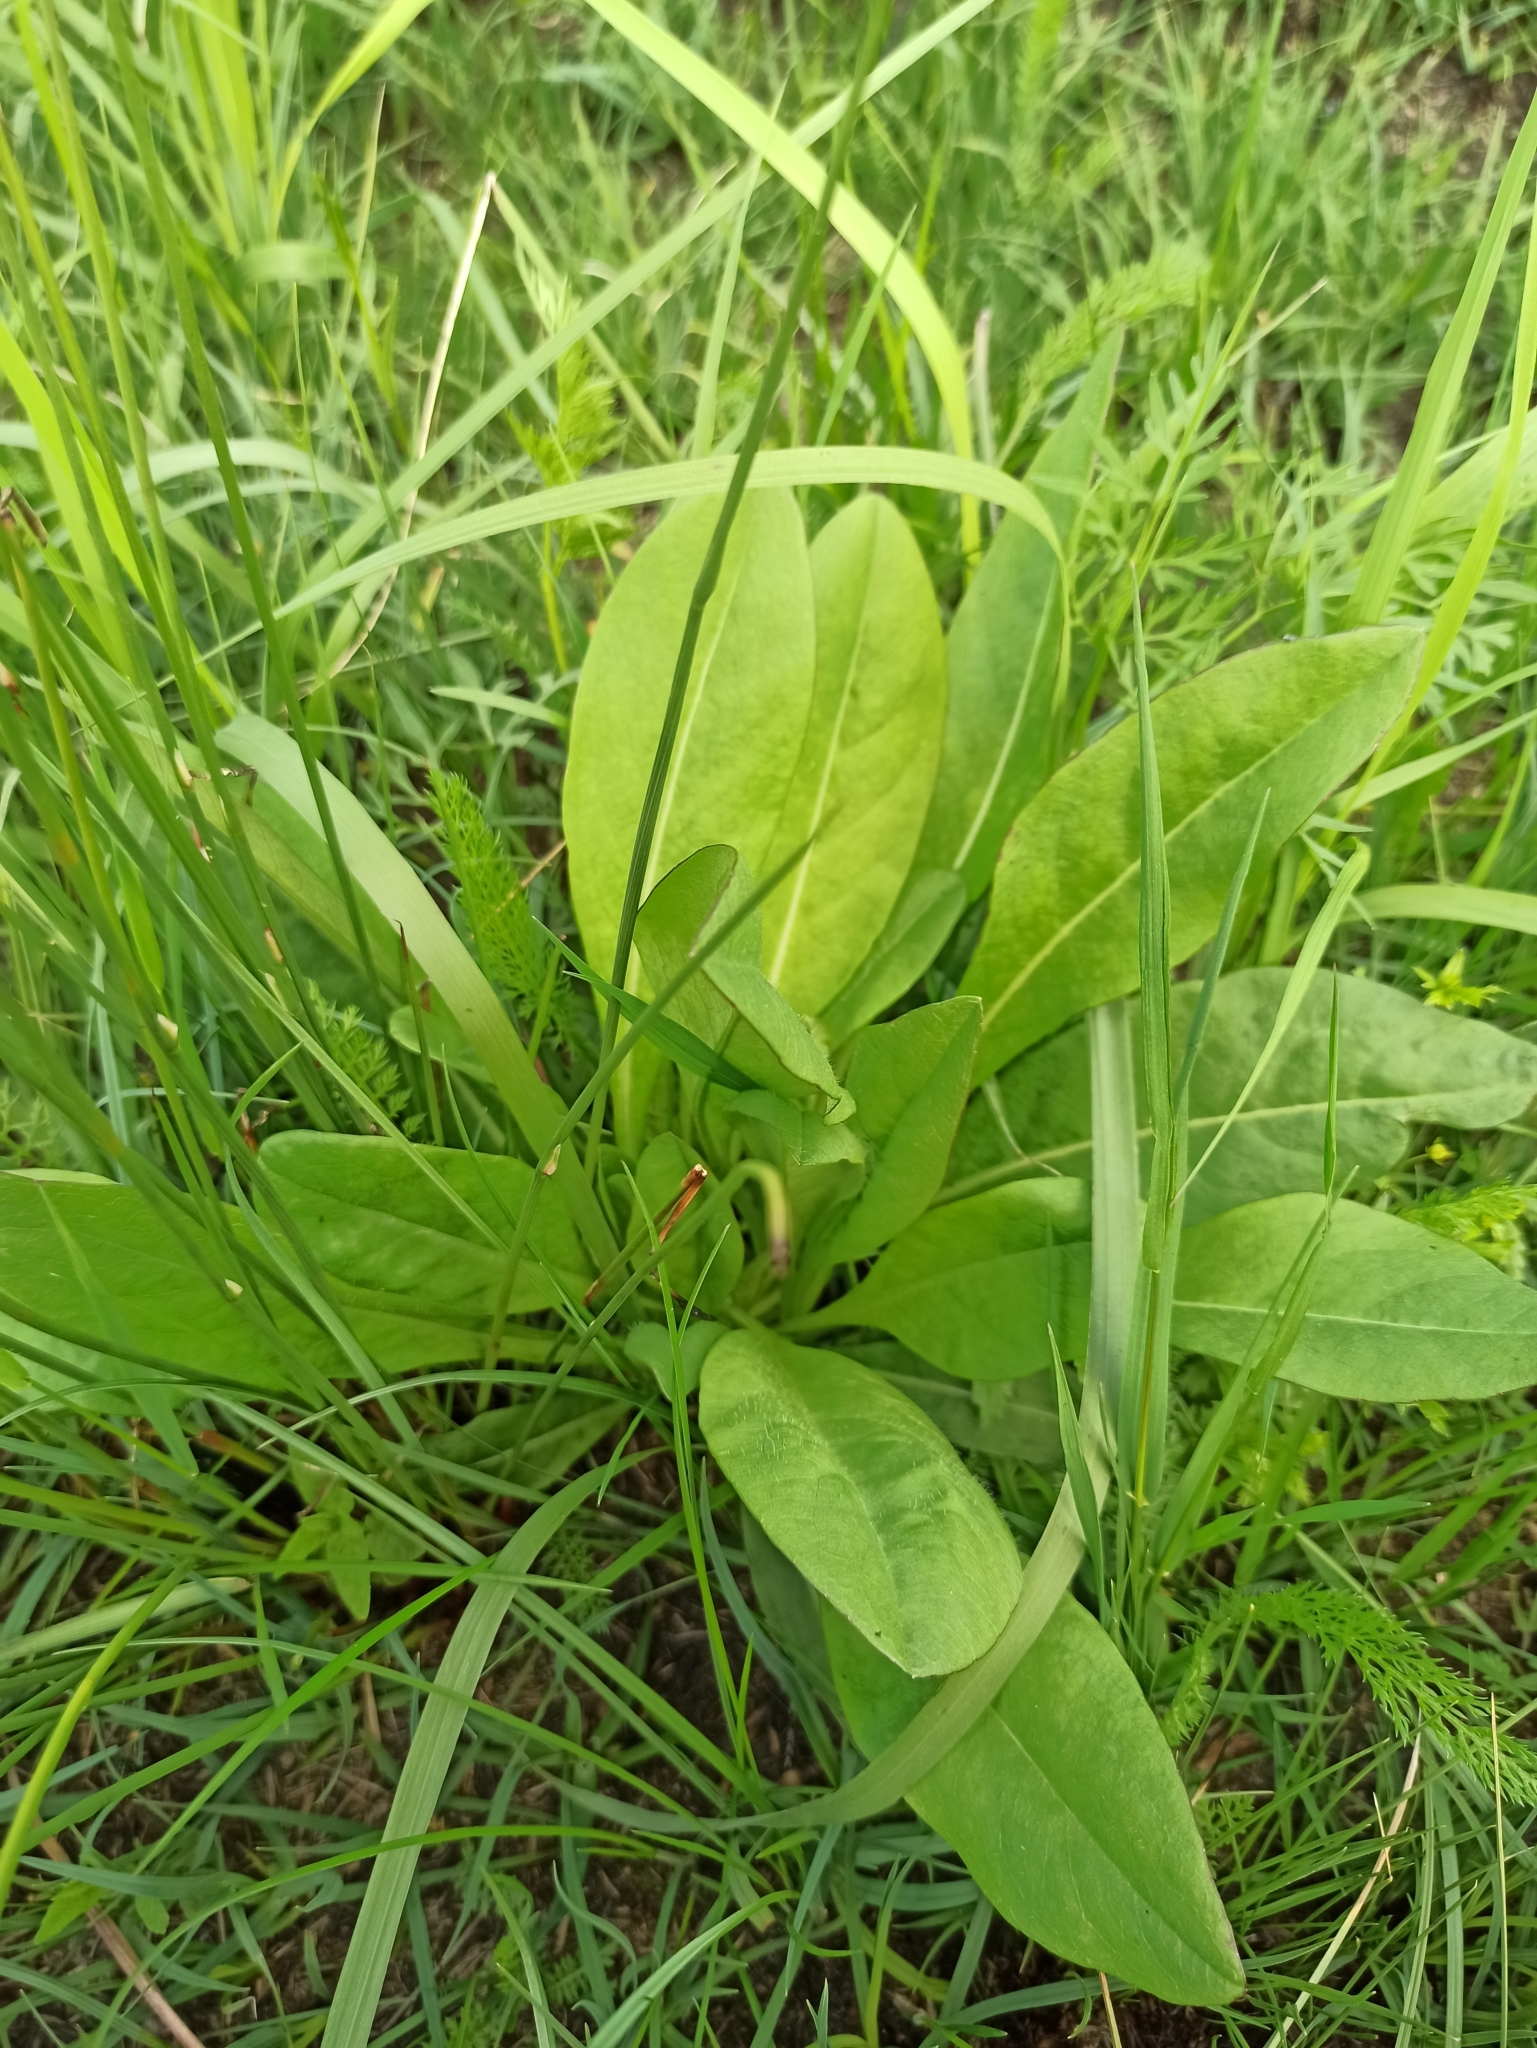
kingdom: Plantae
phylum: Tracheophyta
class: Magnoliopsida
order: Dipsacales
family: Caprifoliaceae
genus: Succisa
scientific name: Succisa pratensis
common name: Devil's-bit
